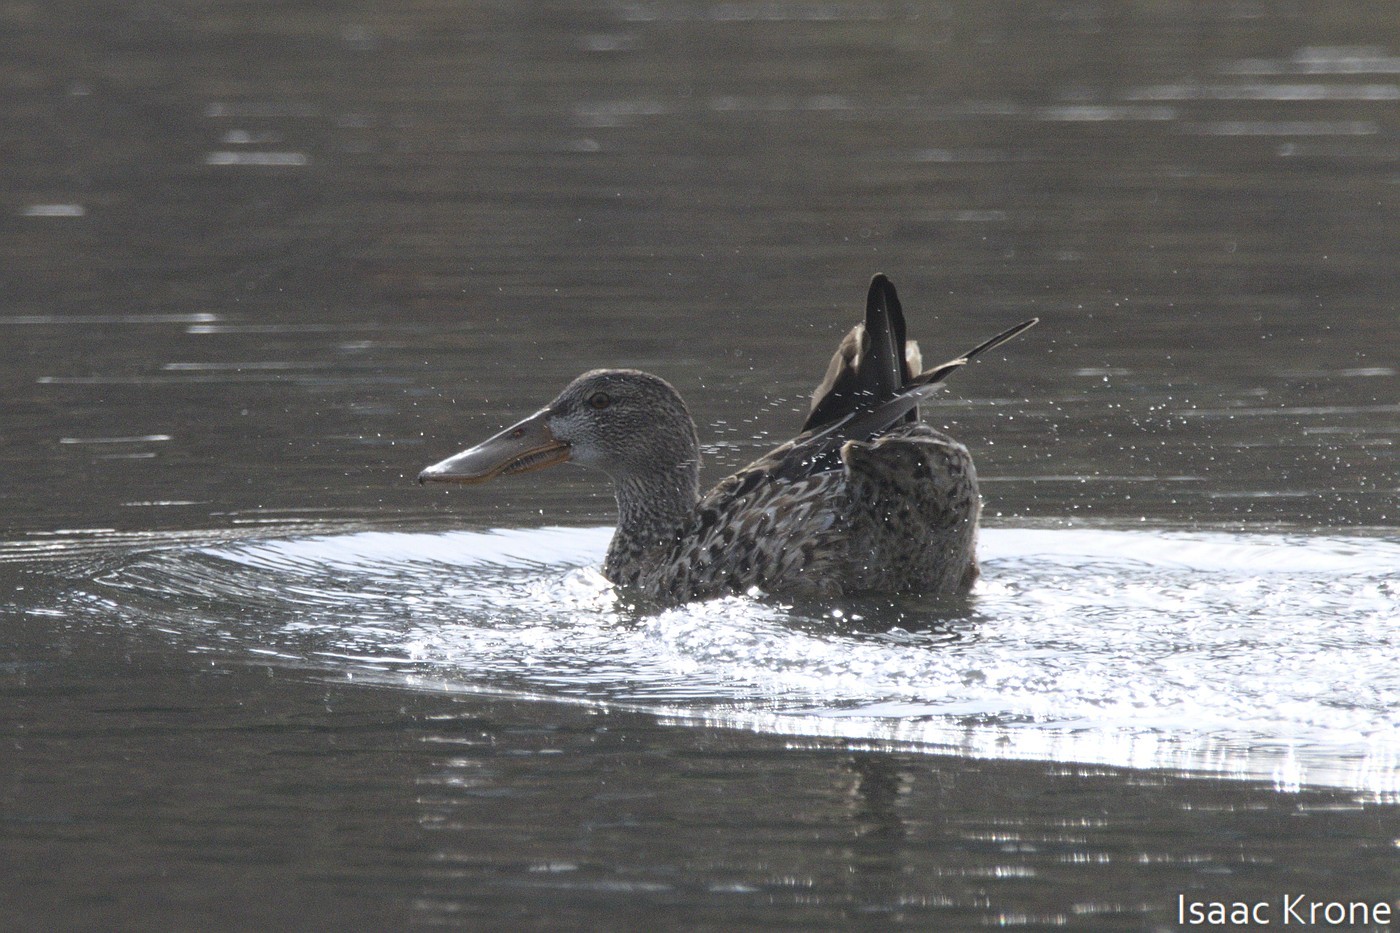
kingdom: Animalia
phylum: Chordata
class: Aves
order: Anseriformes
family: Anatidae
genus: Spatula
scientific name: Spatula clypeata
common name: Northern shoveler
